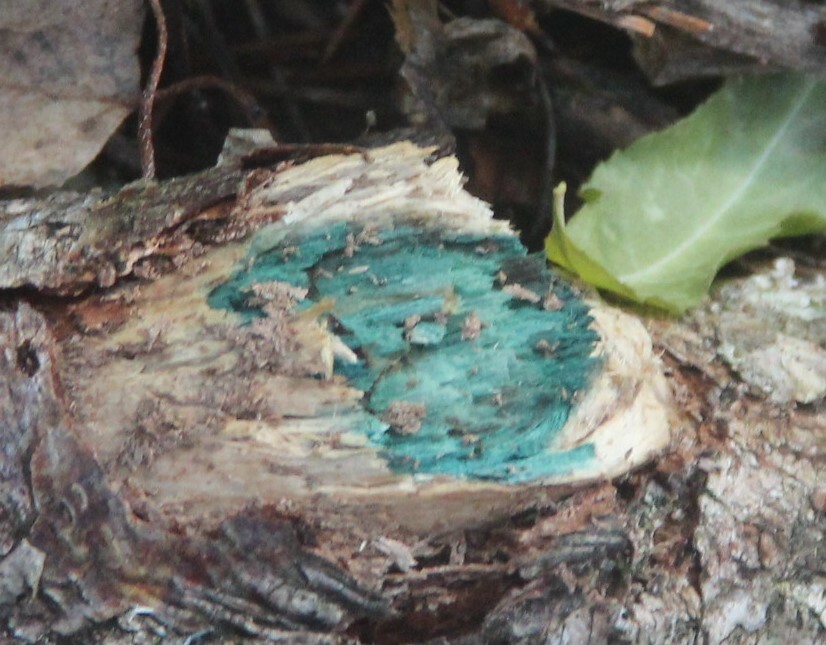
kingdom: Fungi
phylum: Ascomycota
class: Leotiomycetes
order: Helotiales
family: Chlorociboriaceae
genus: Chlorociboria
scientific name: Chlorociboria aeruginascens
